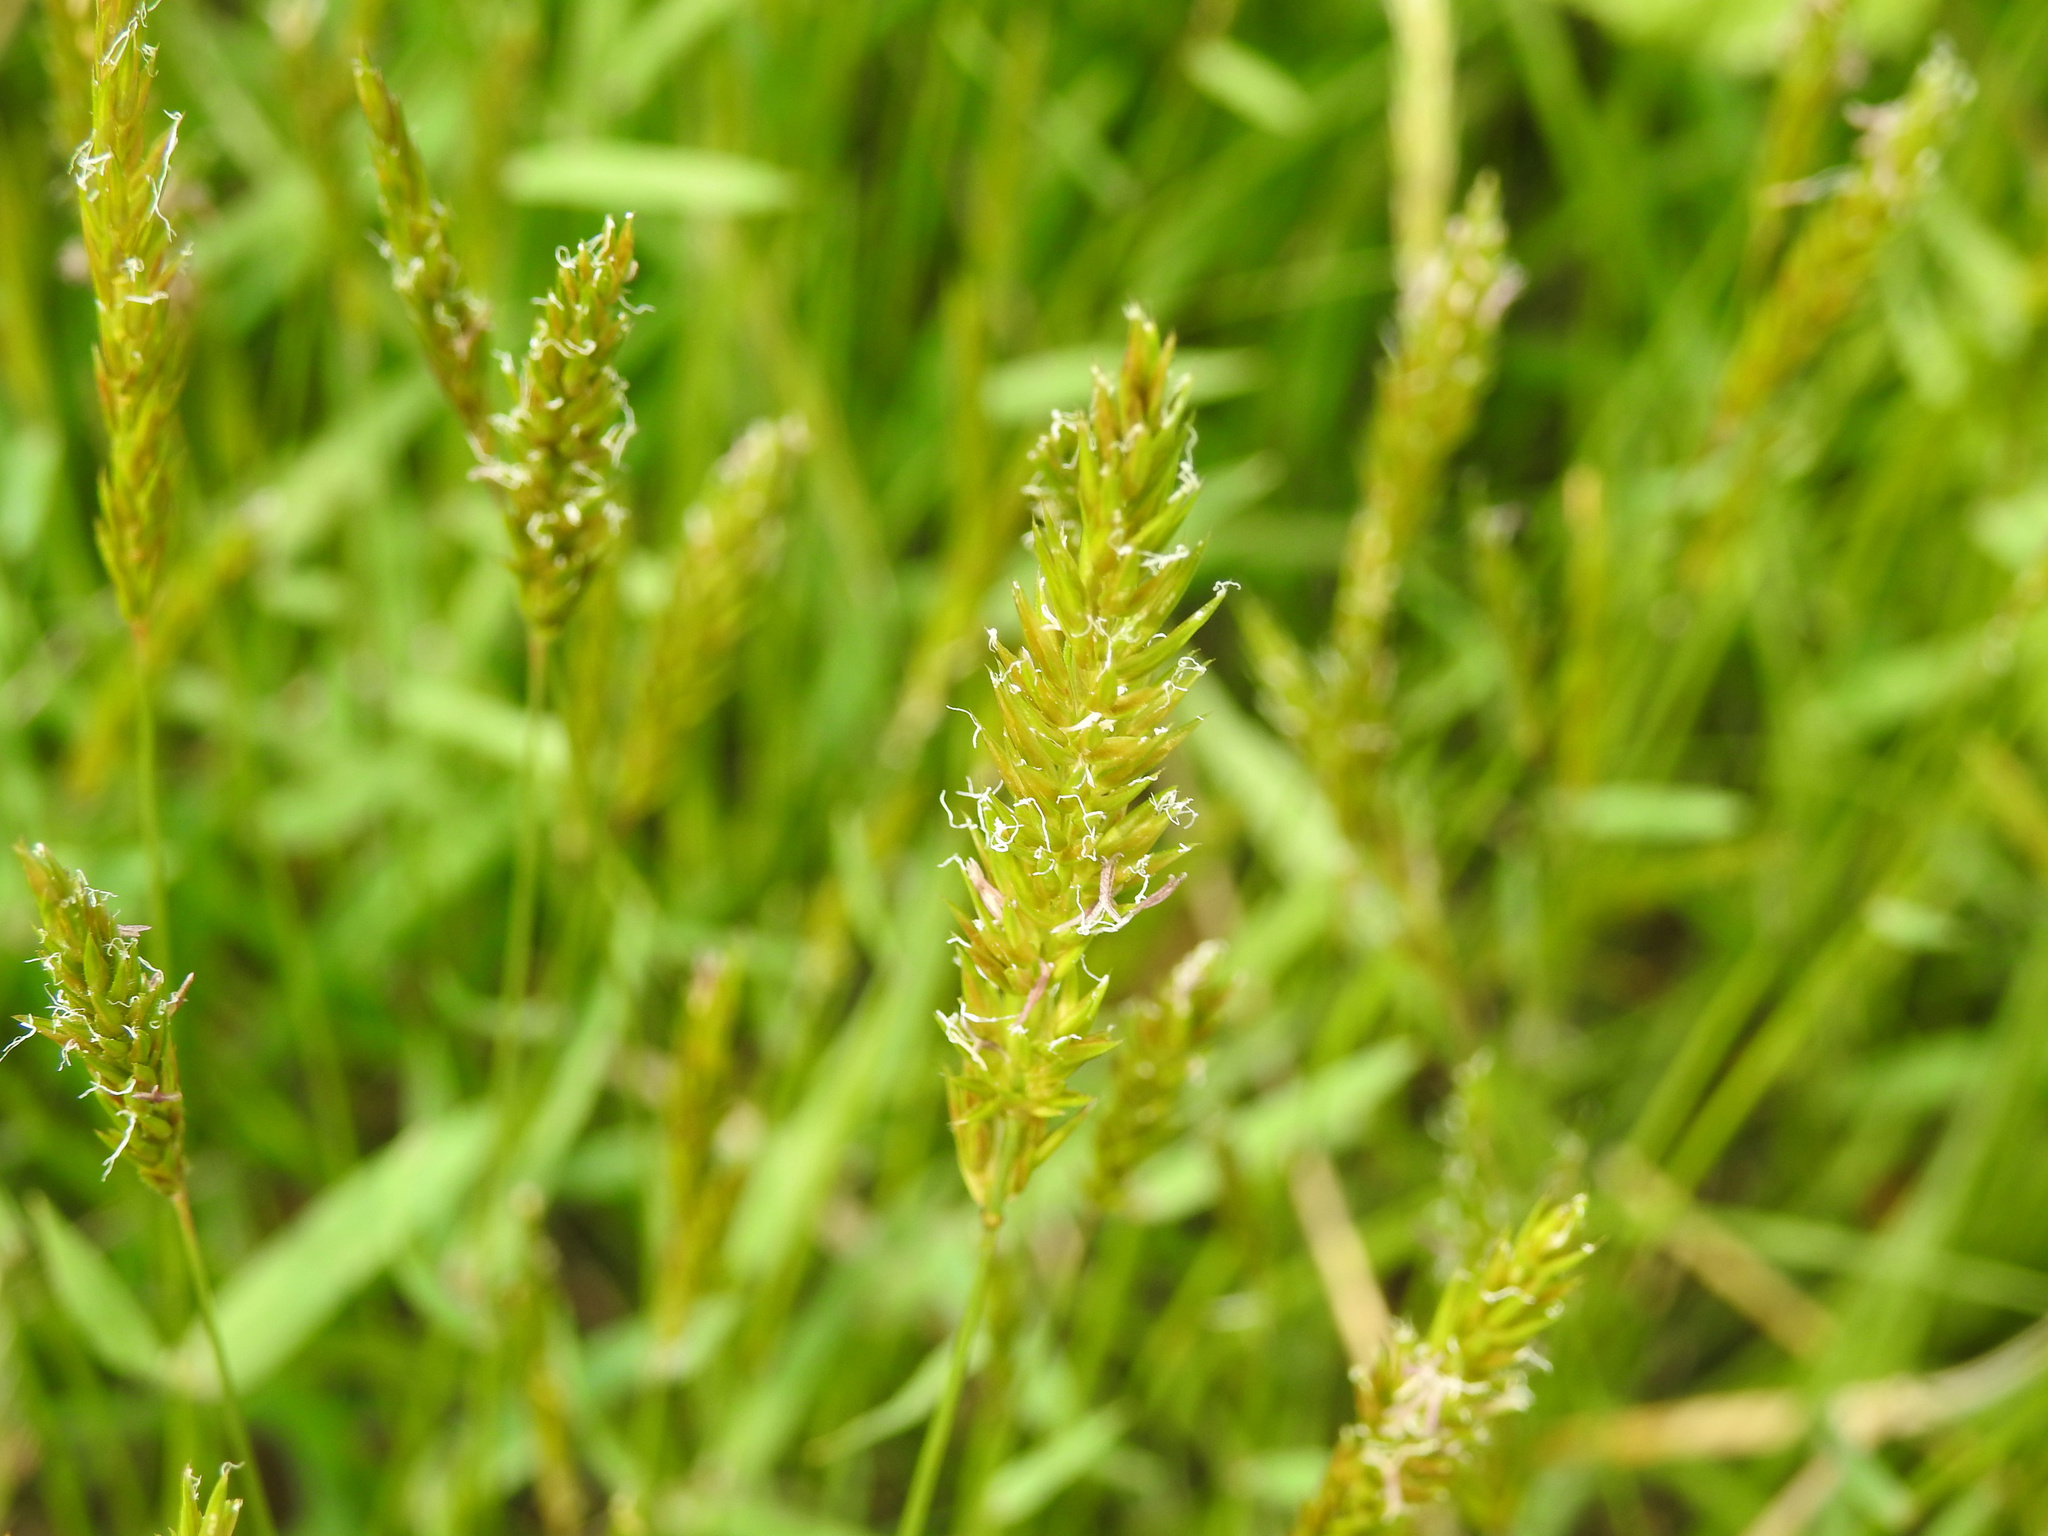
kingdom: Plantae
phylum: Tracheophyta
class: Liliopsida
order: Poales
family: Poaceae
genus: Anthoxanthum
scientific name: Anthoxanthum odoratum
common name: Sweet vernalgrass
